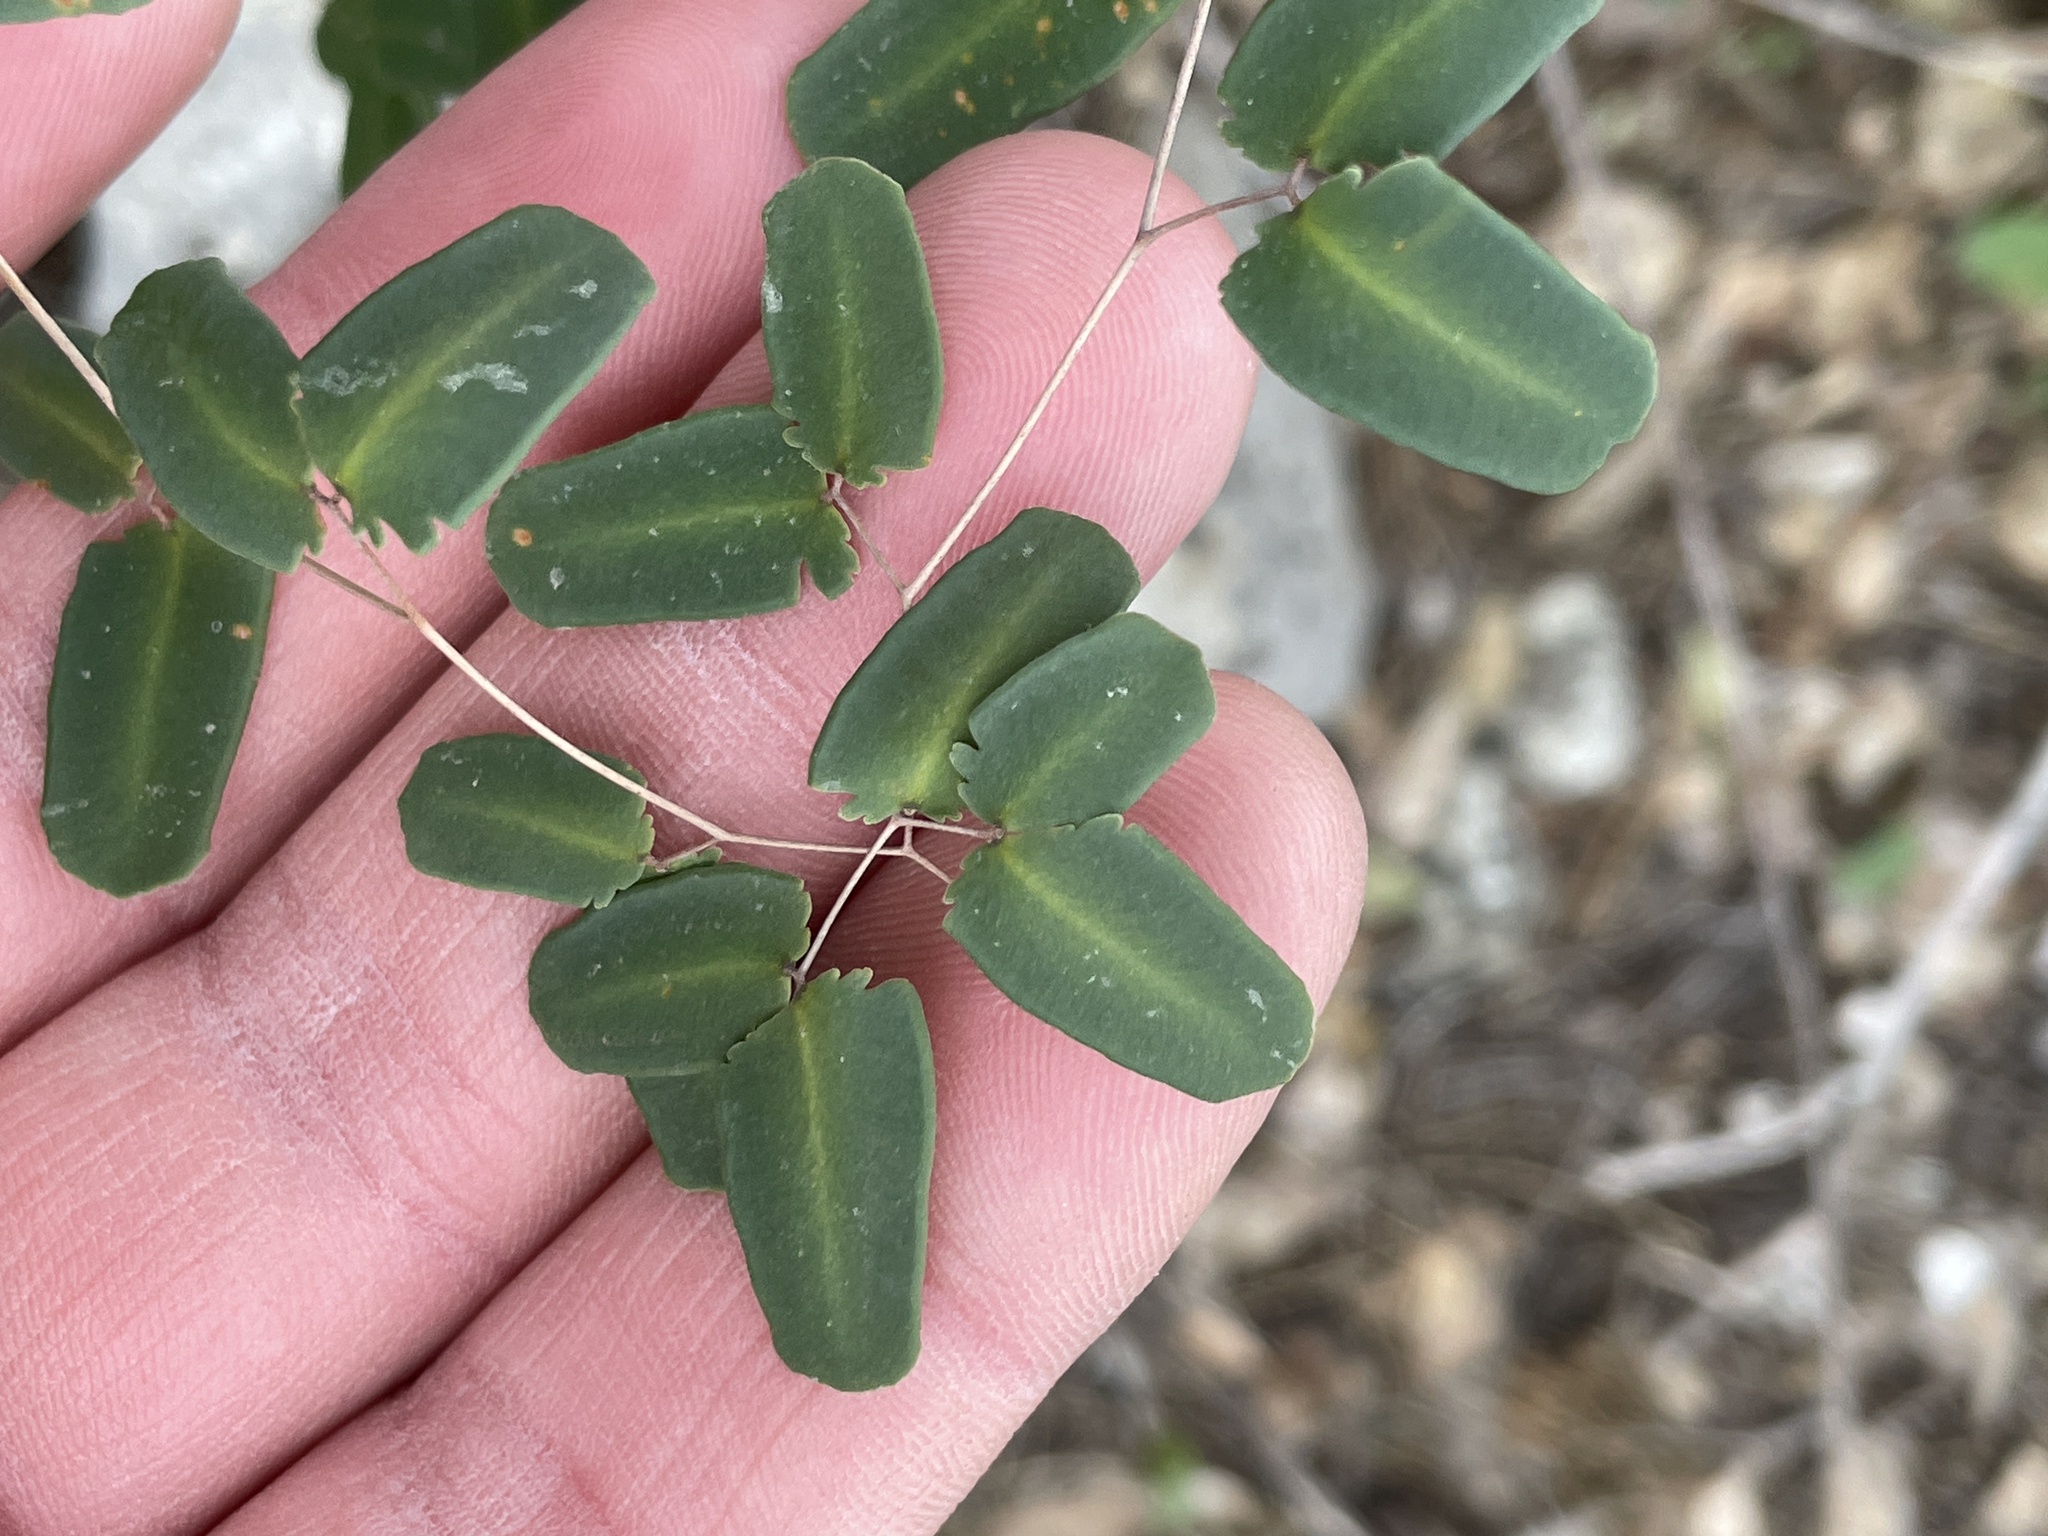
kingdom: Plantae
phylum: Tracheophyta
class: Polypodiopsida
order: Polypodiales
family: Pteridaceae
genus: Pellaea
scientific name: Pellaea ovata
